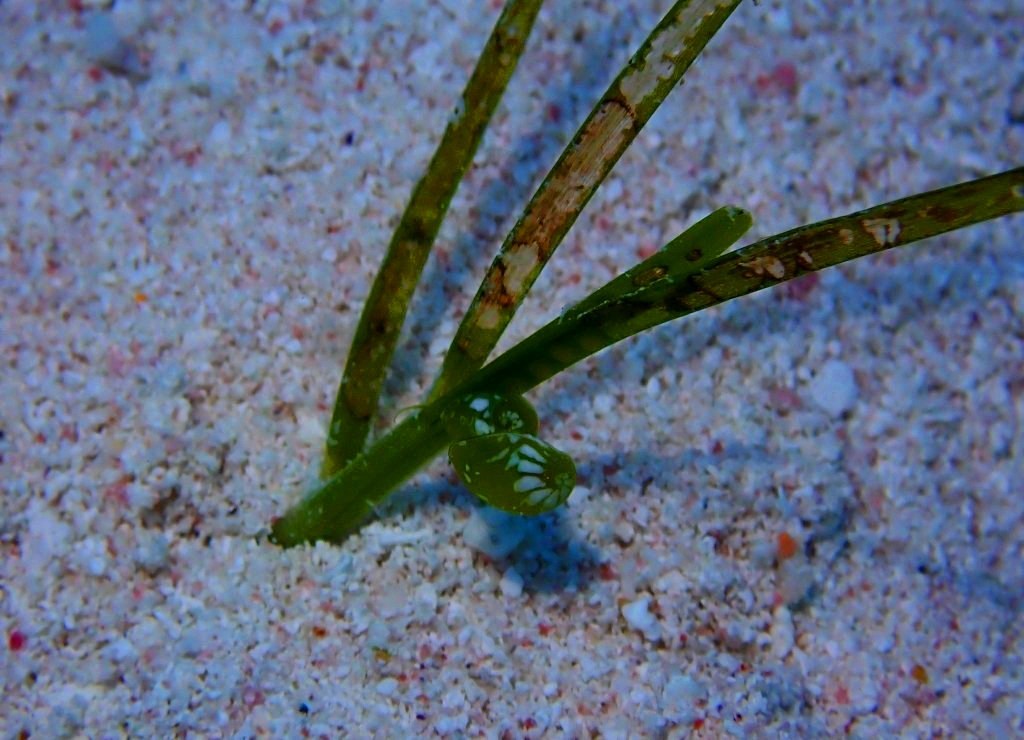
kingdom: Animalia
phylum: Mollusca
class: Gastropoda
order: Cycloneritida
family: Neritidae
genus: Smaragdia
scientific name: Smaragdia viridis
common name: Emerald nerite
